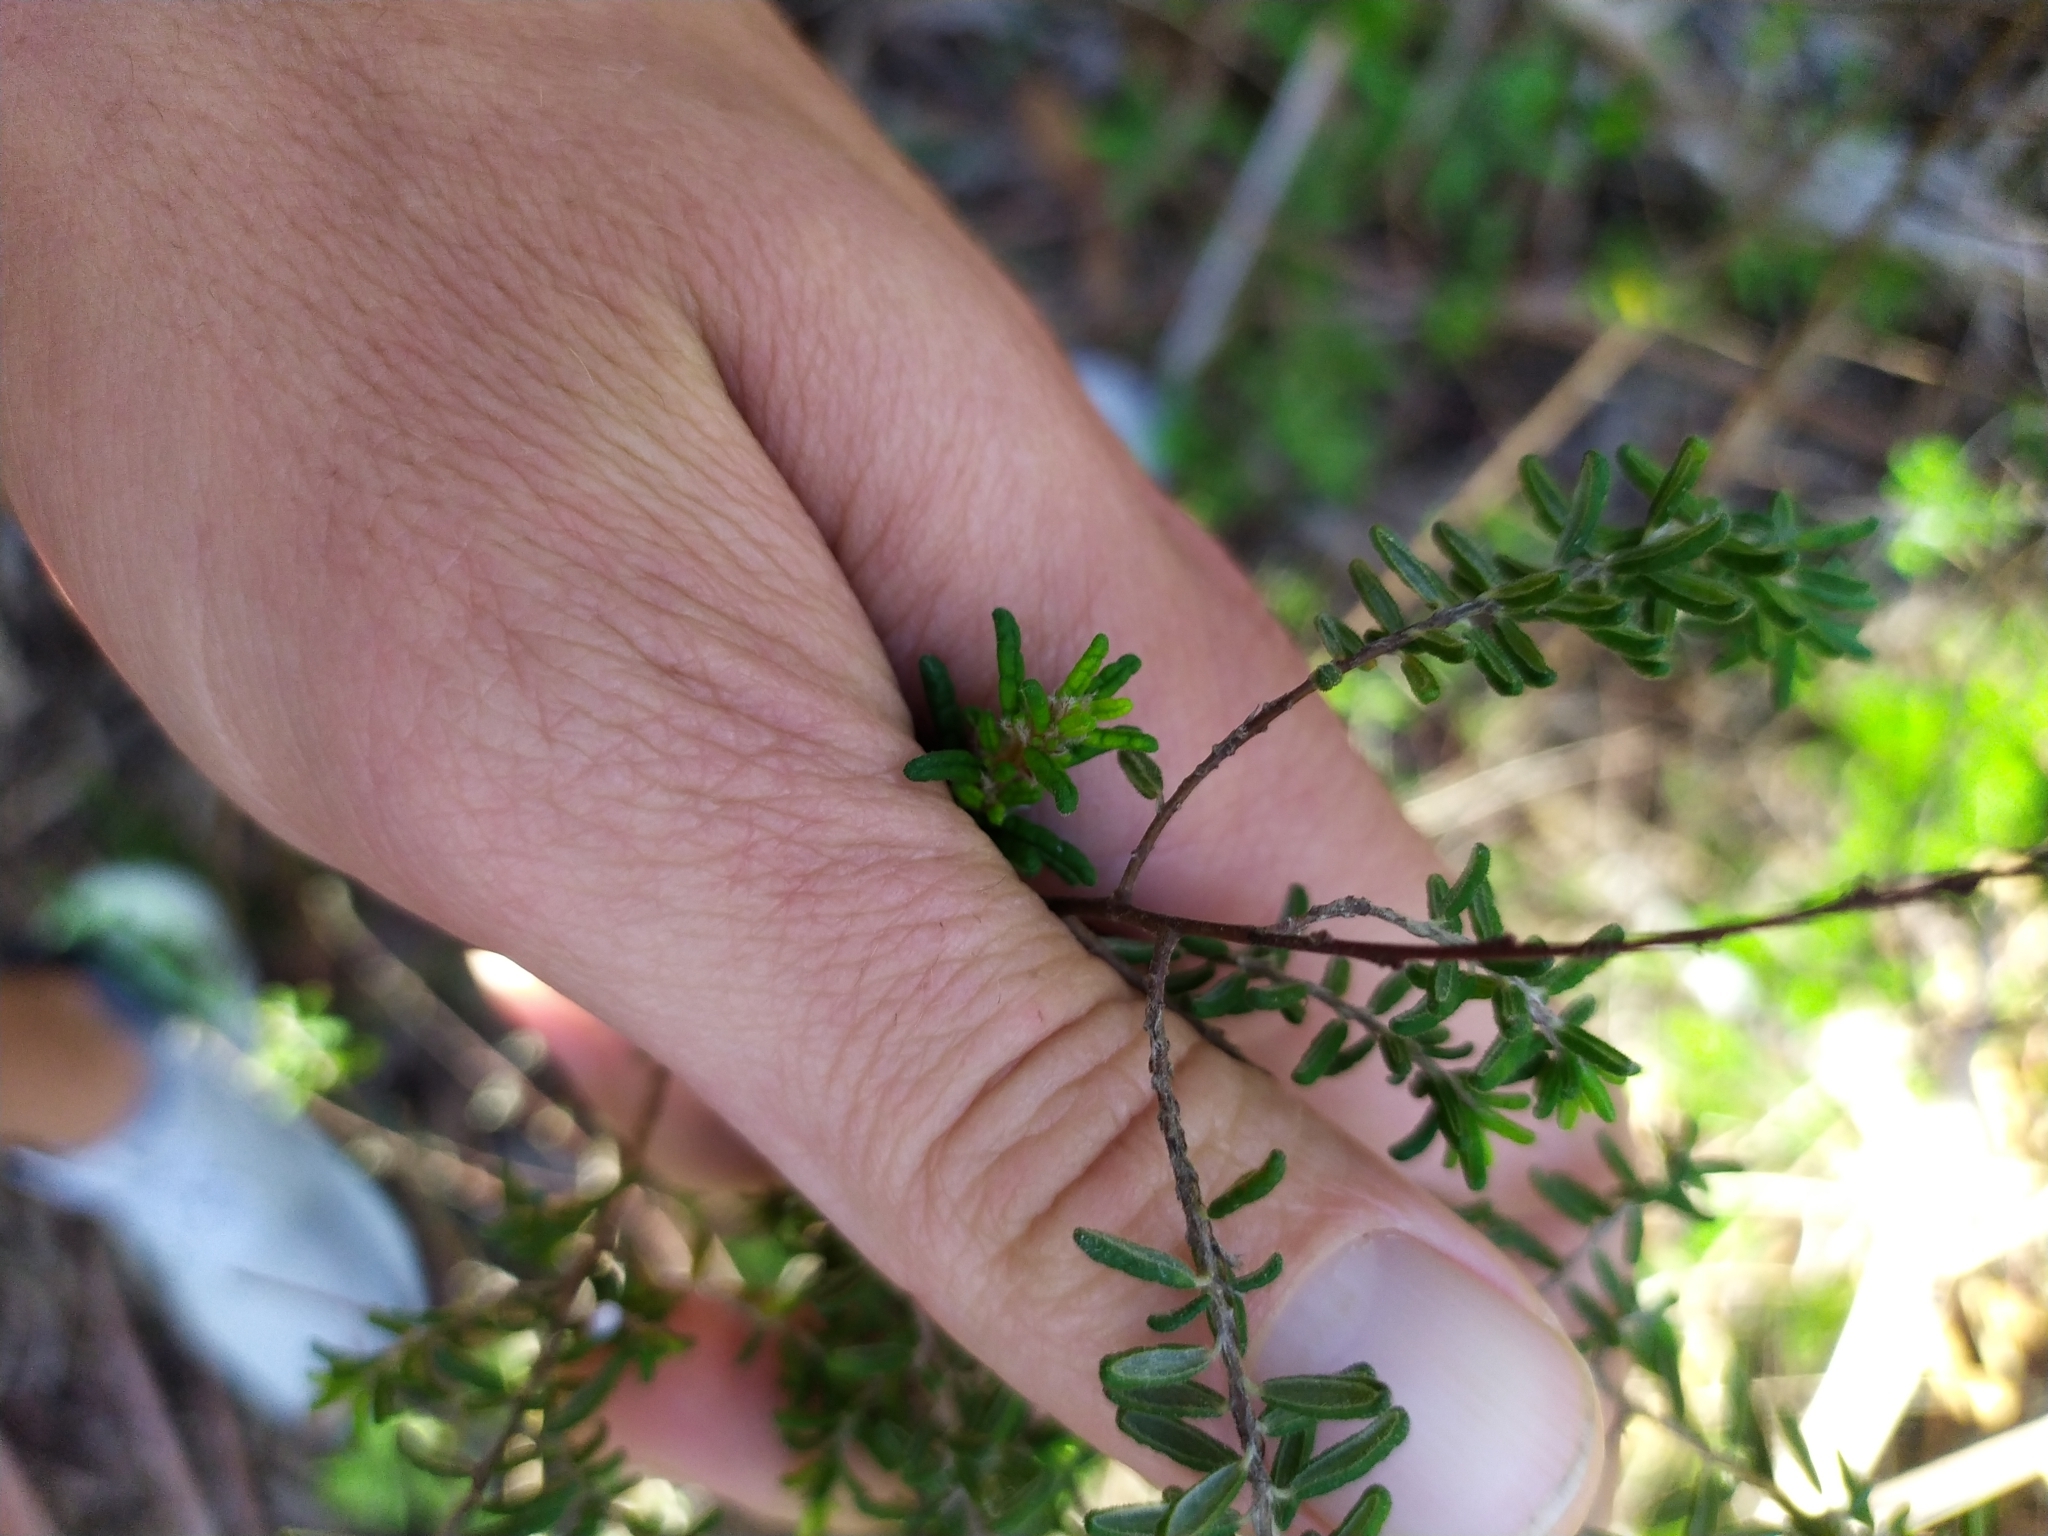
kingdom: Plantae
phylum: Tracheophyta
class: Magnoliopsida
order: Rosales
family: Rhamnaceae
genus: Pomaderris
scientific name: Pomaderris amoena
